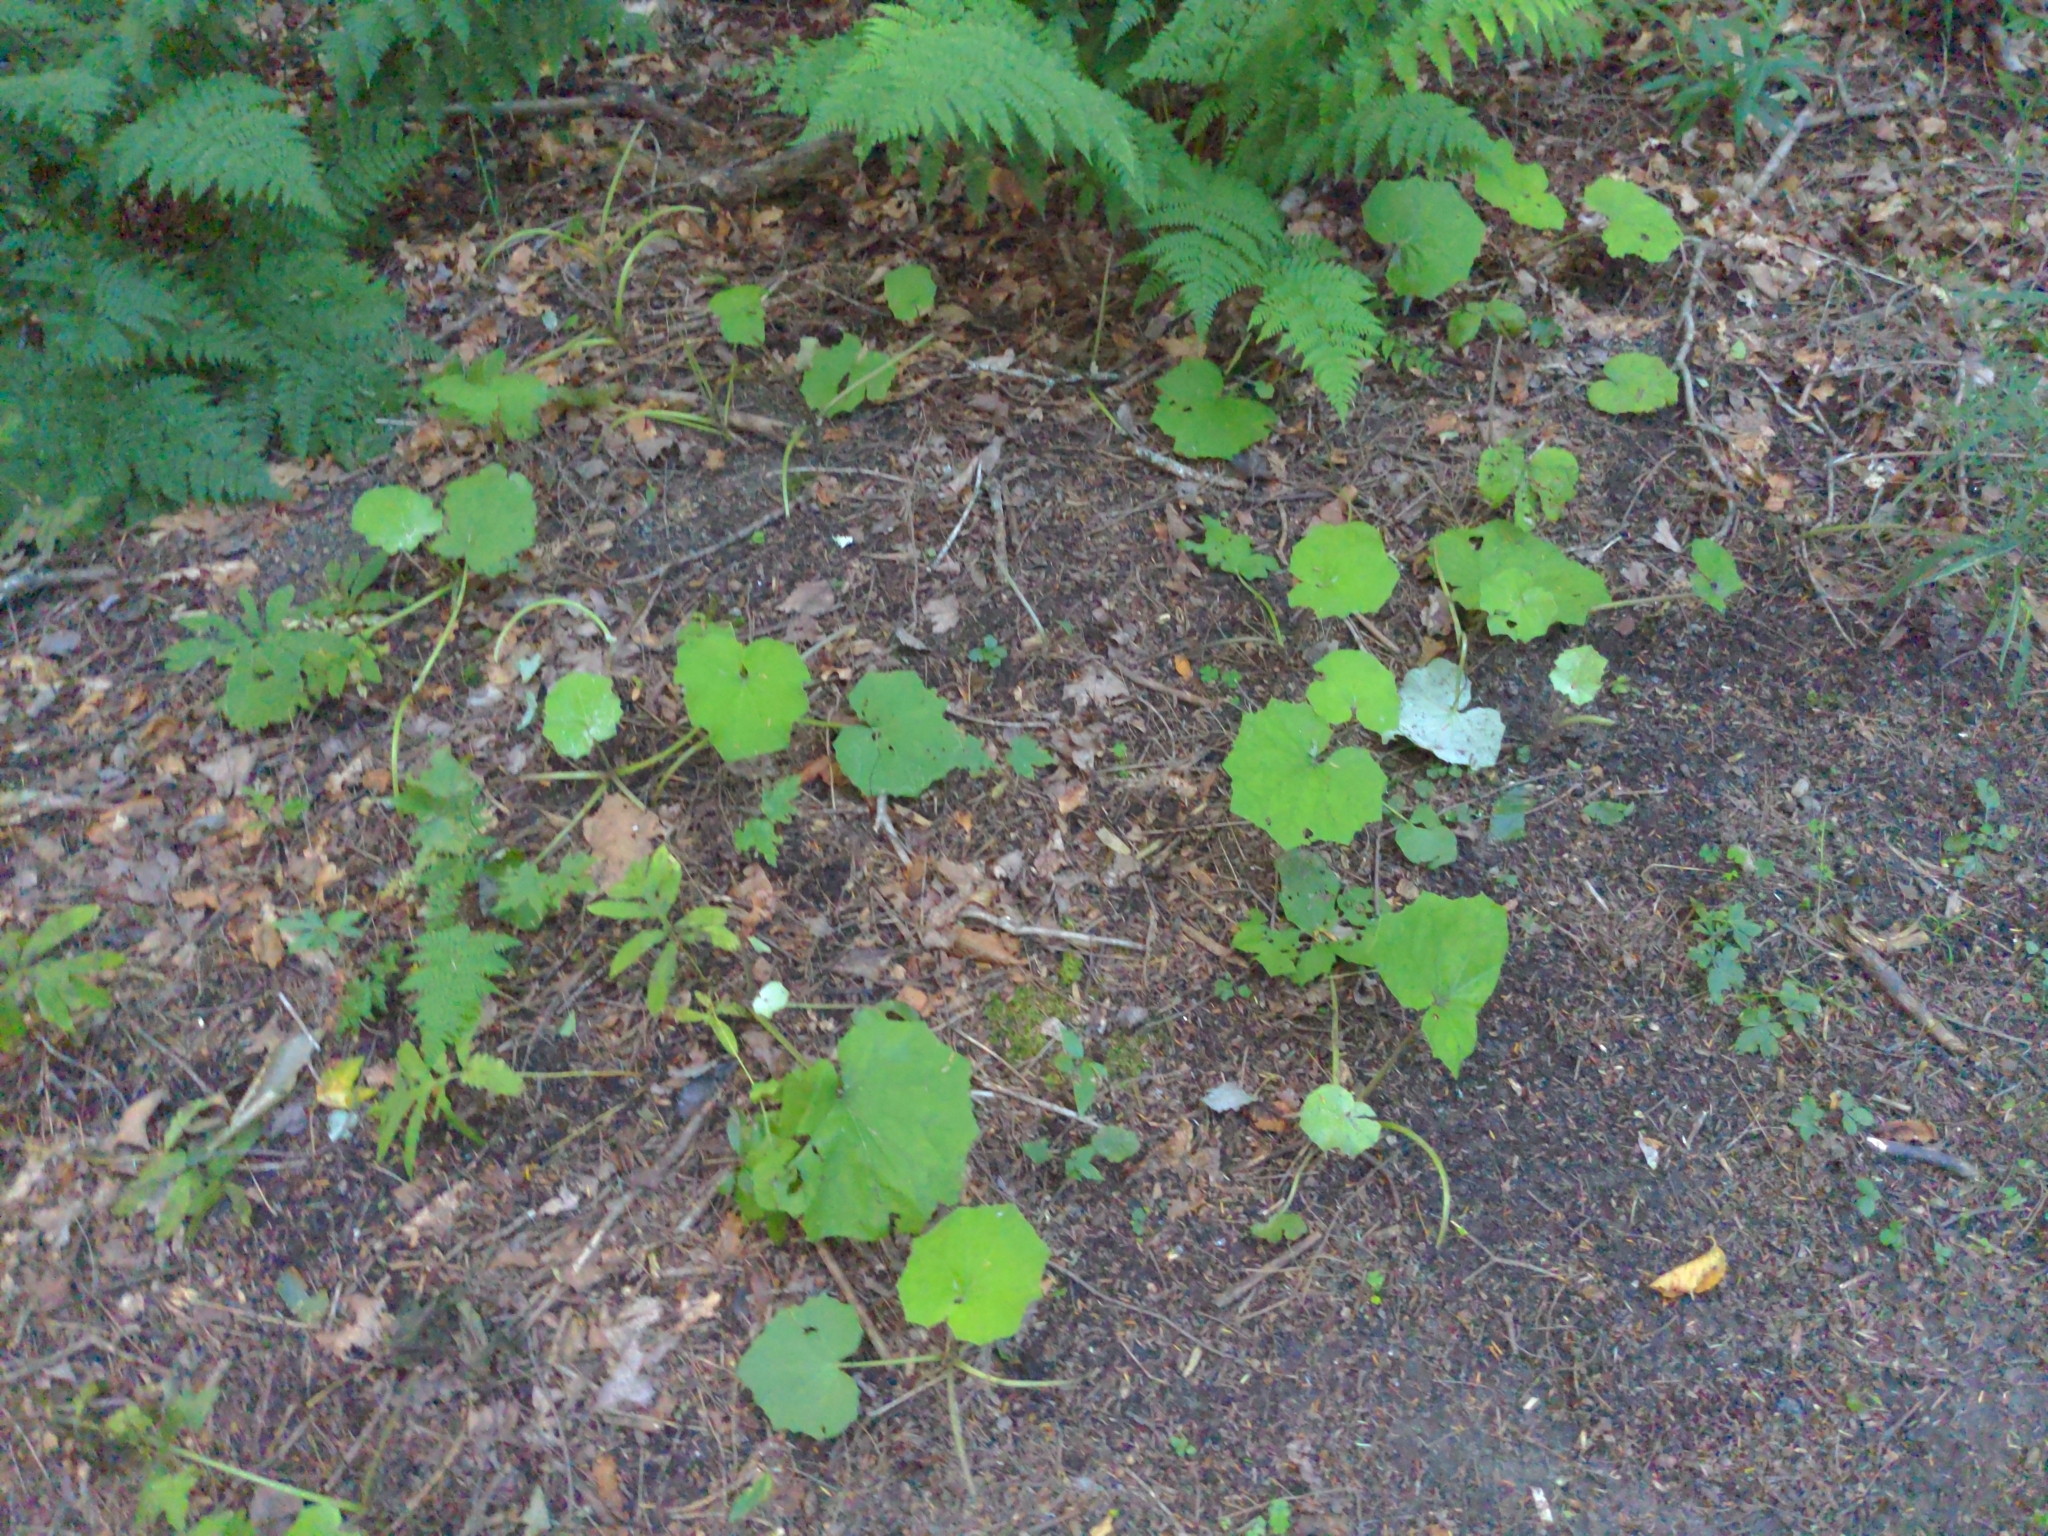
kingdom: Plantae
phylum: Tracheophyta
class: Magnoliopsida
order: Asterales
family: Asteraceae
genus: Tussilago
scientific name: Tussilago farfara
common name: Coltsfoot
